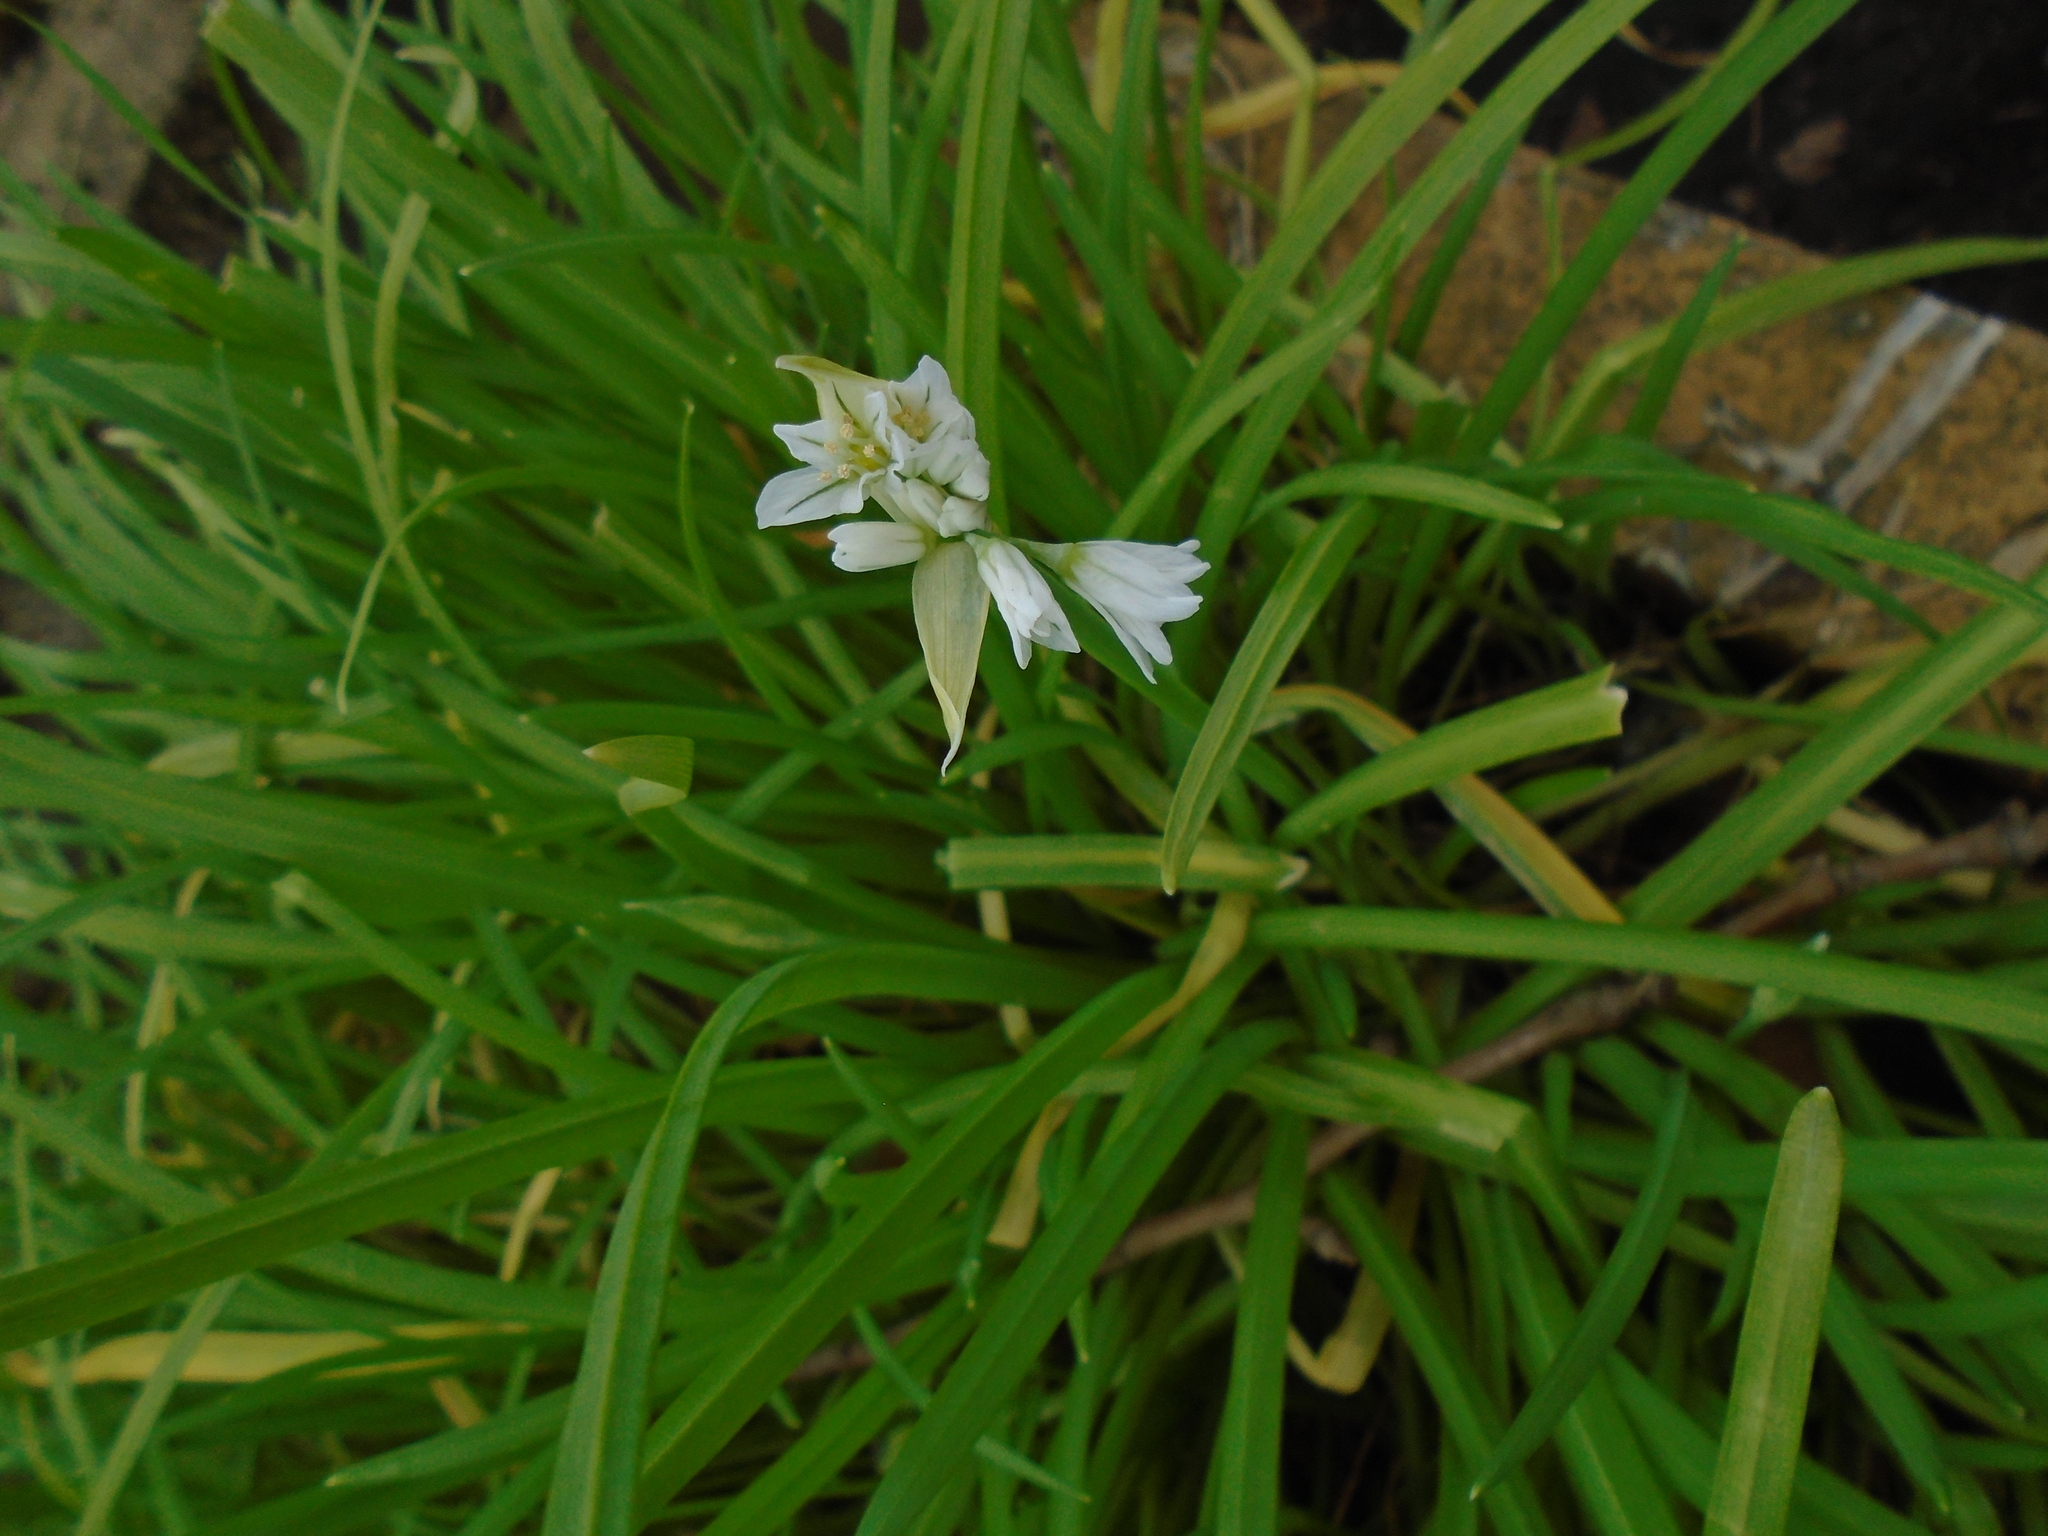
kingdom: Plantae
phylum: Tracheophyta
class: Liliopsida
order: Asparagales
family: Amaryllidaceae
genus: Allium
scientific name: Allium triquetrum
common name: Three-cornered garlic
